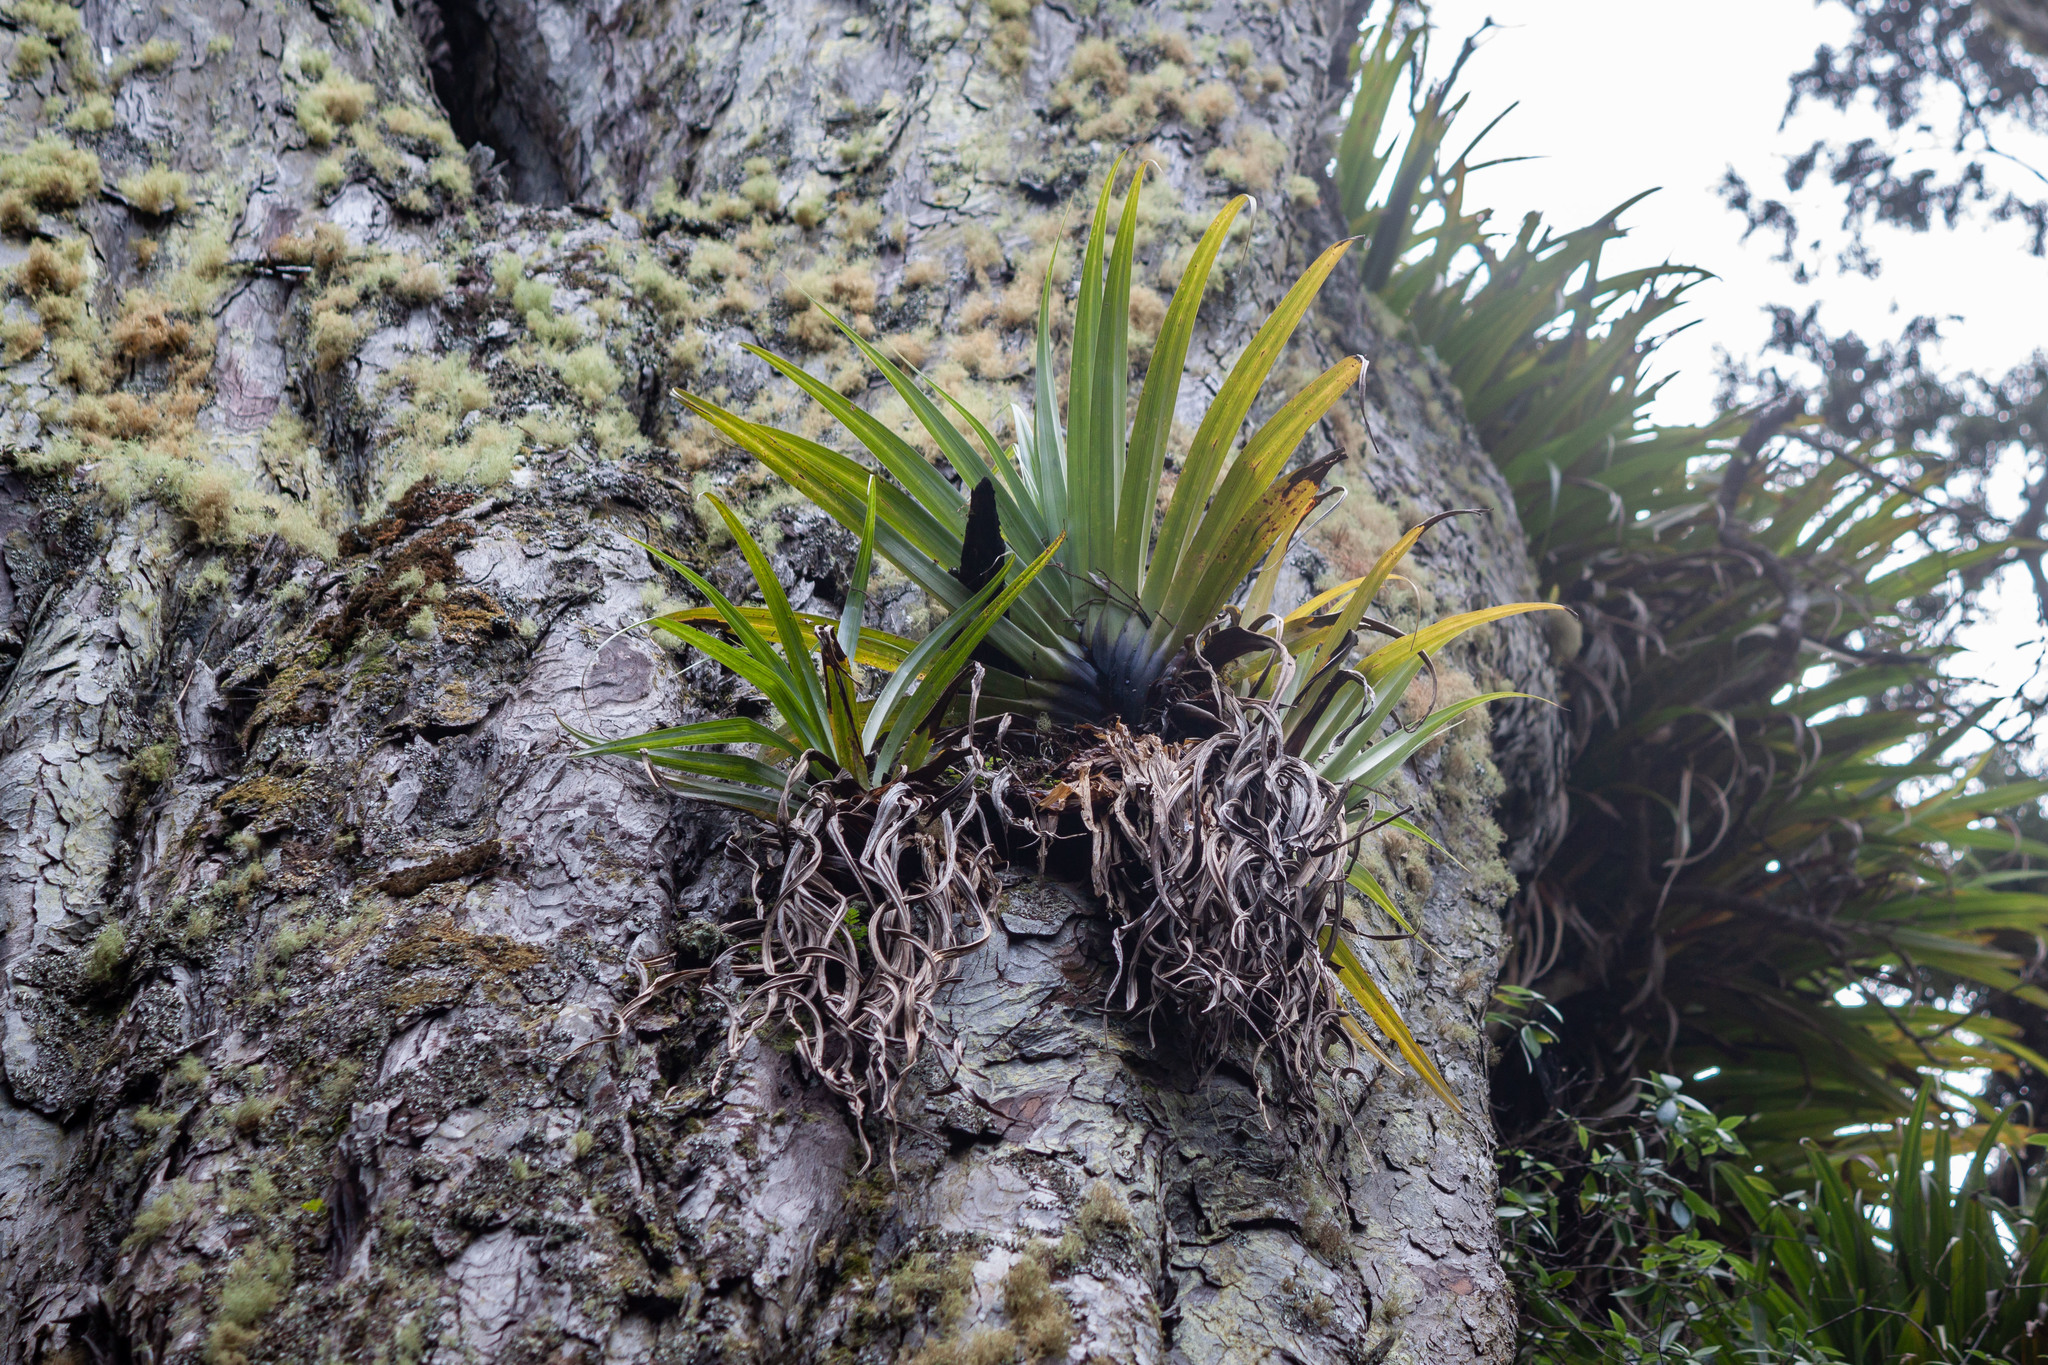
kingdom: Plantae
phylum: Tracheophyta
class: Liliopsida
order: Asparagales
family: Asteliaceae
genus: Astelia
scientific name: Astelia hastata
